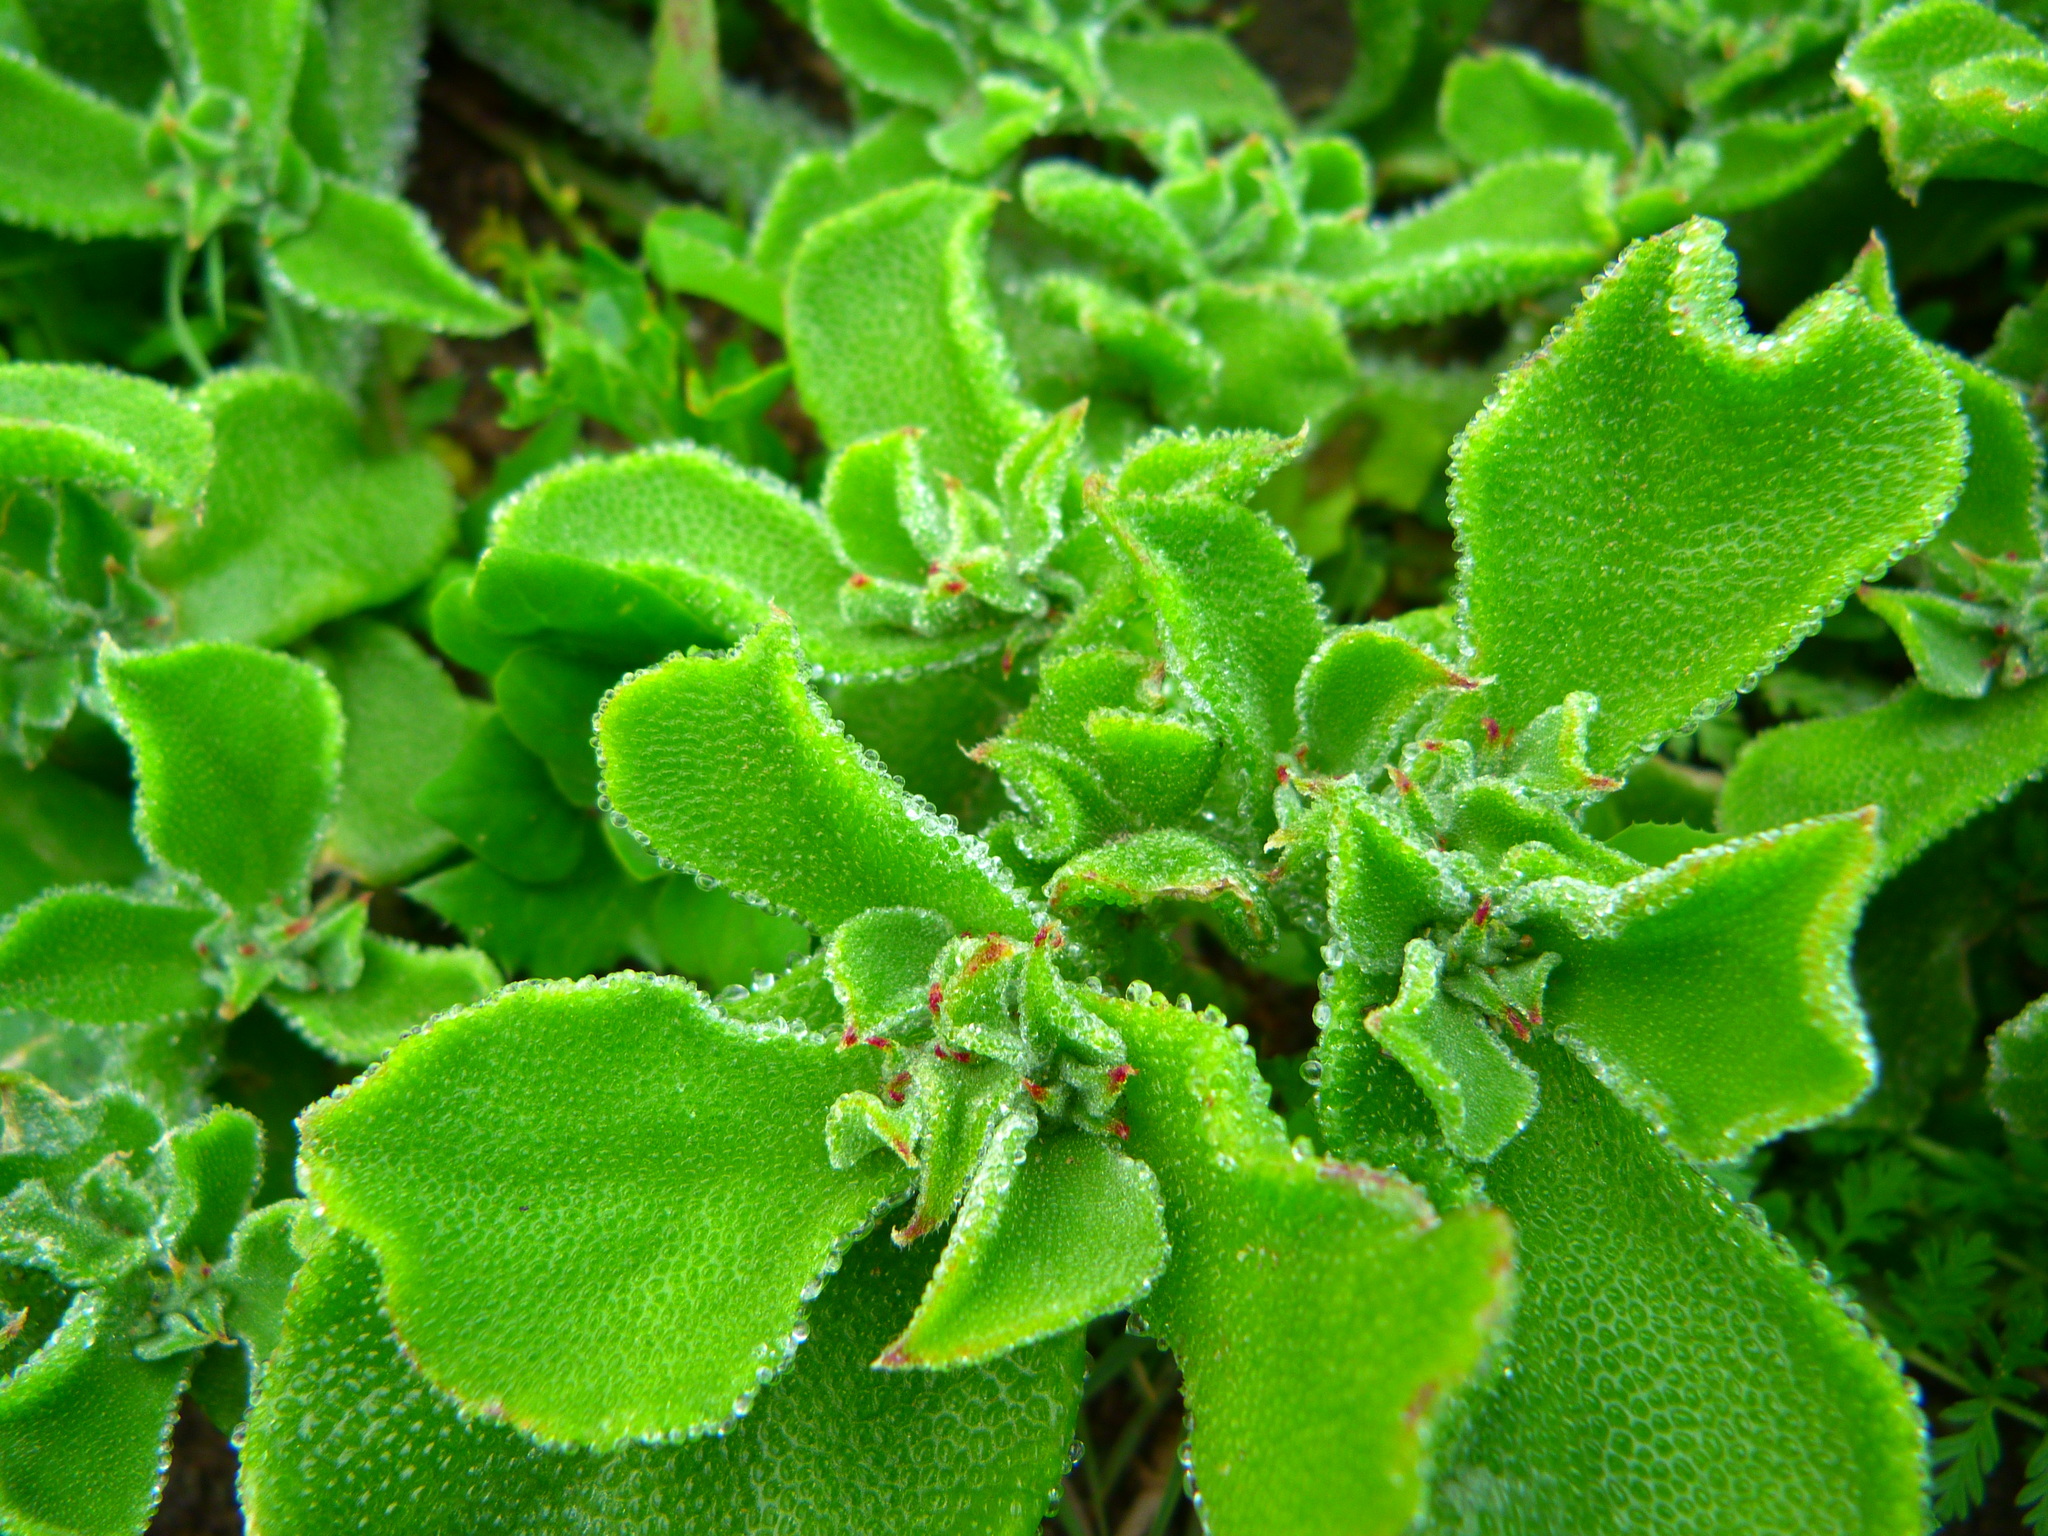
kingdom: Plantae
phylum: Tracheophyta
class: Magnoliopsida
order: Caryophyllales
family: Aizoaceae
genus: Mesembryanthemum
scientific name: Mesembryanthemum crystallinum
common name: Common iceplant
